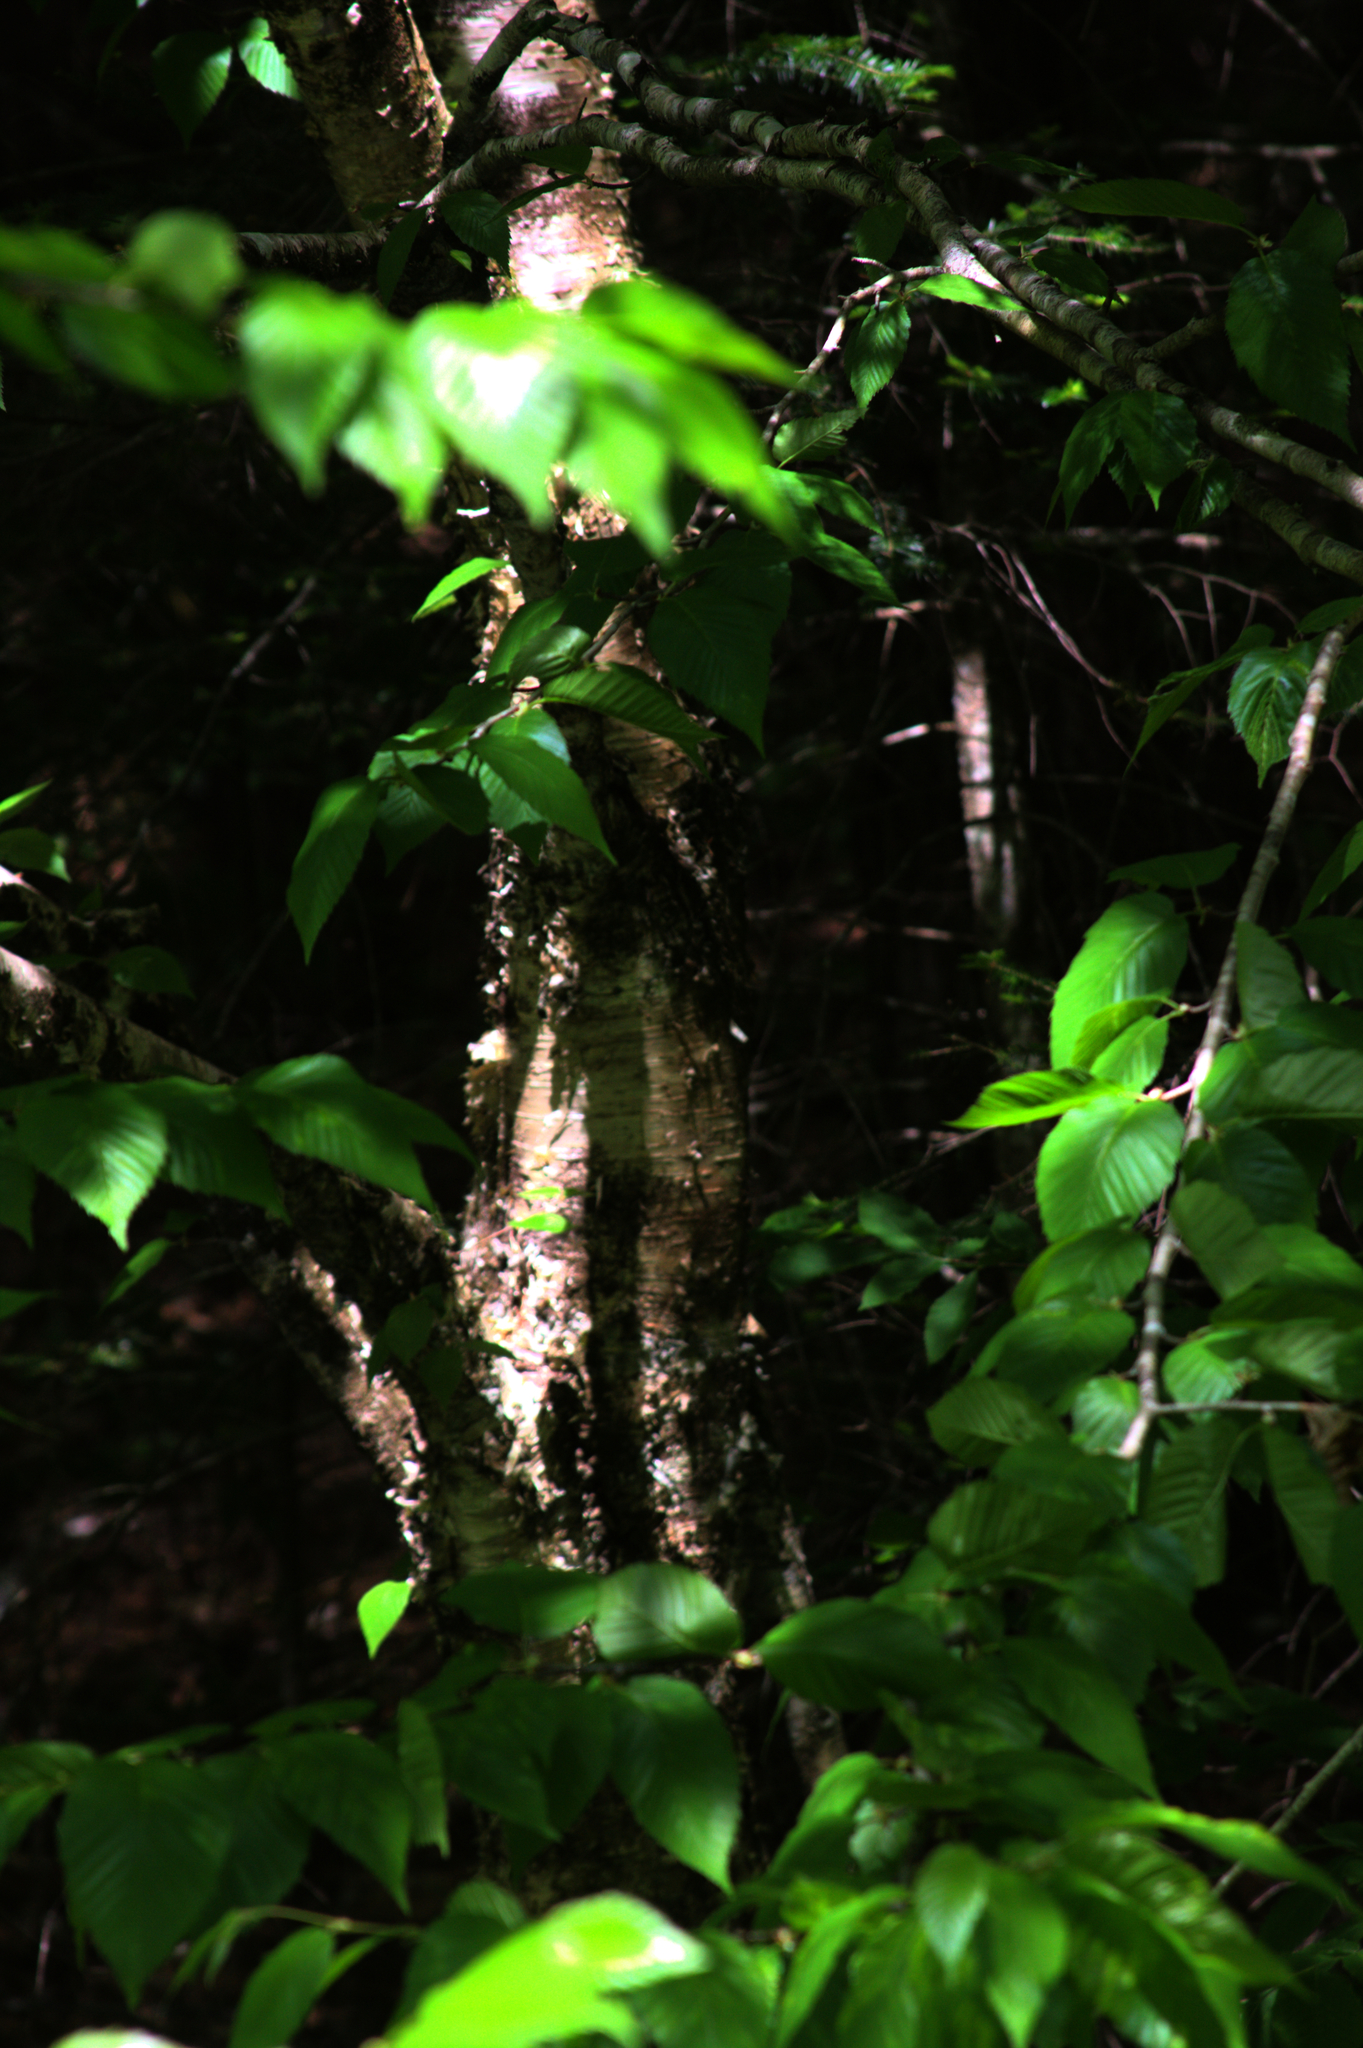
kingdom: Plantae
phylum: Tracheophyta
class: Magnoliopsida
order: Fagales
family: Betulaceae
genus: Betula
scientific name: Betula alleghaniensis
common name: Yellow birch
